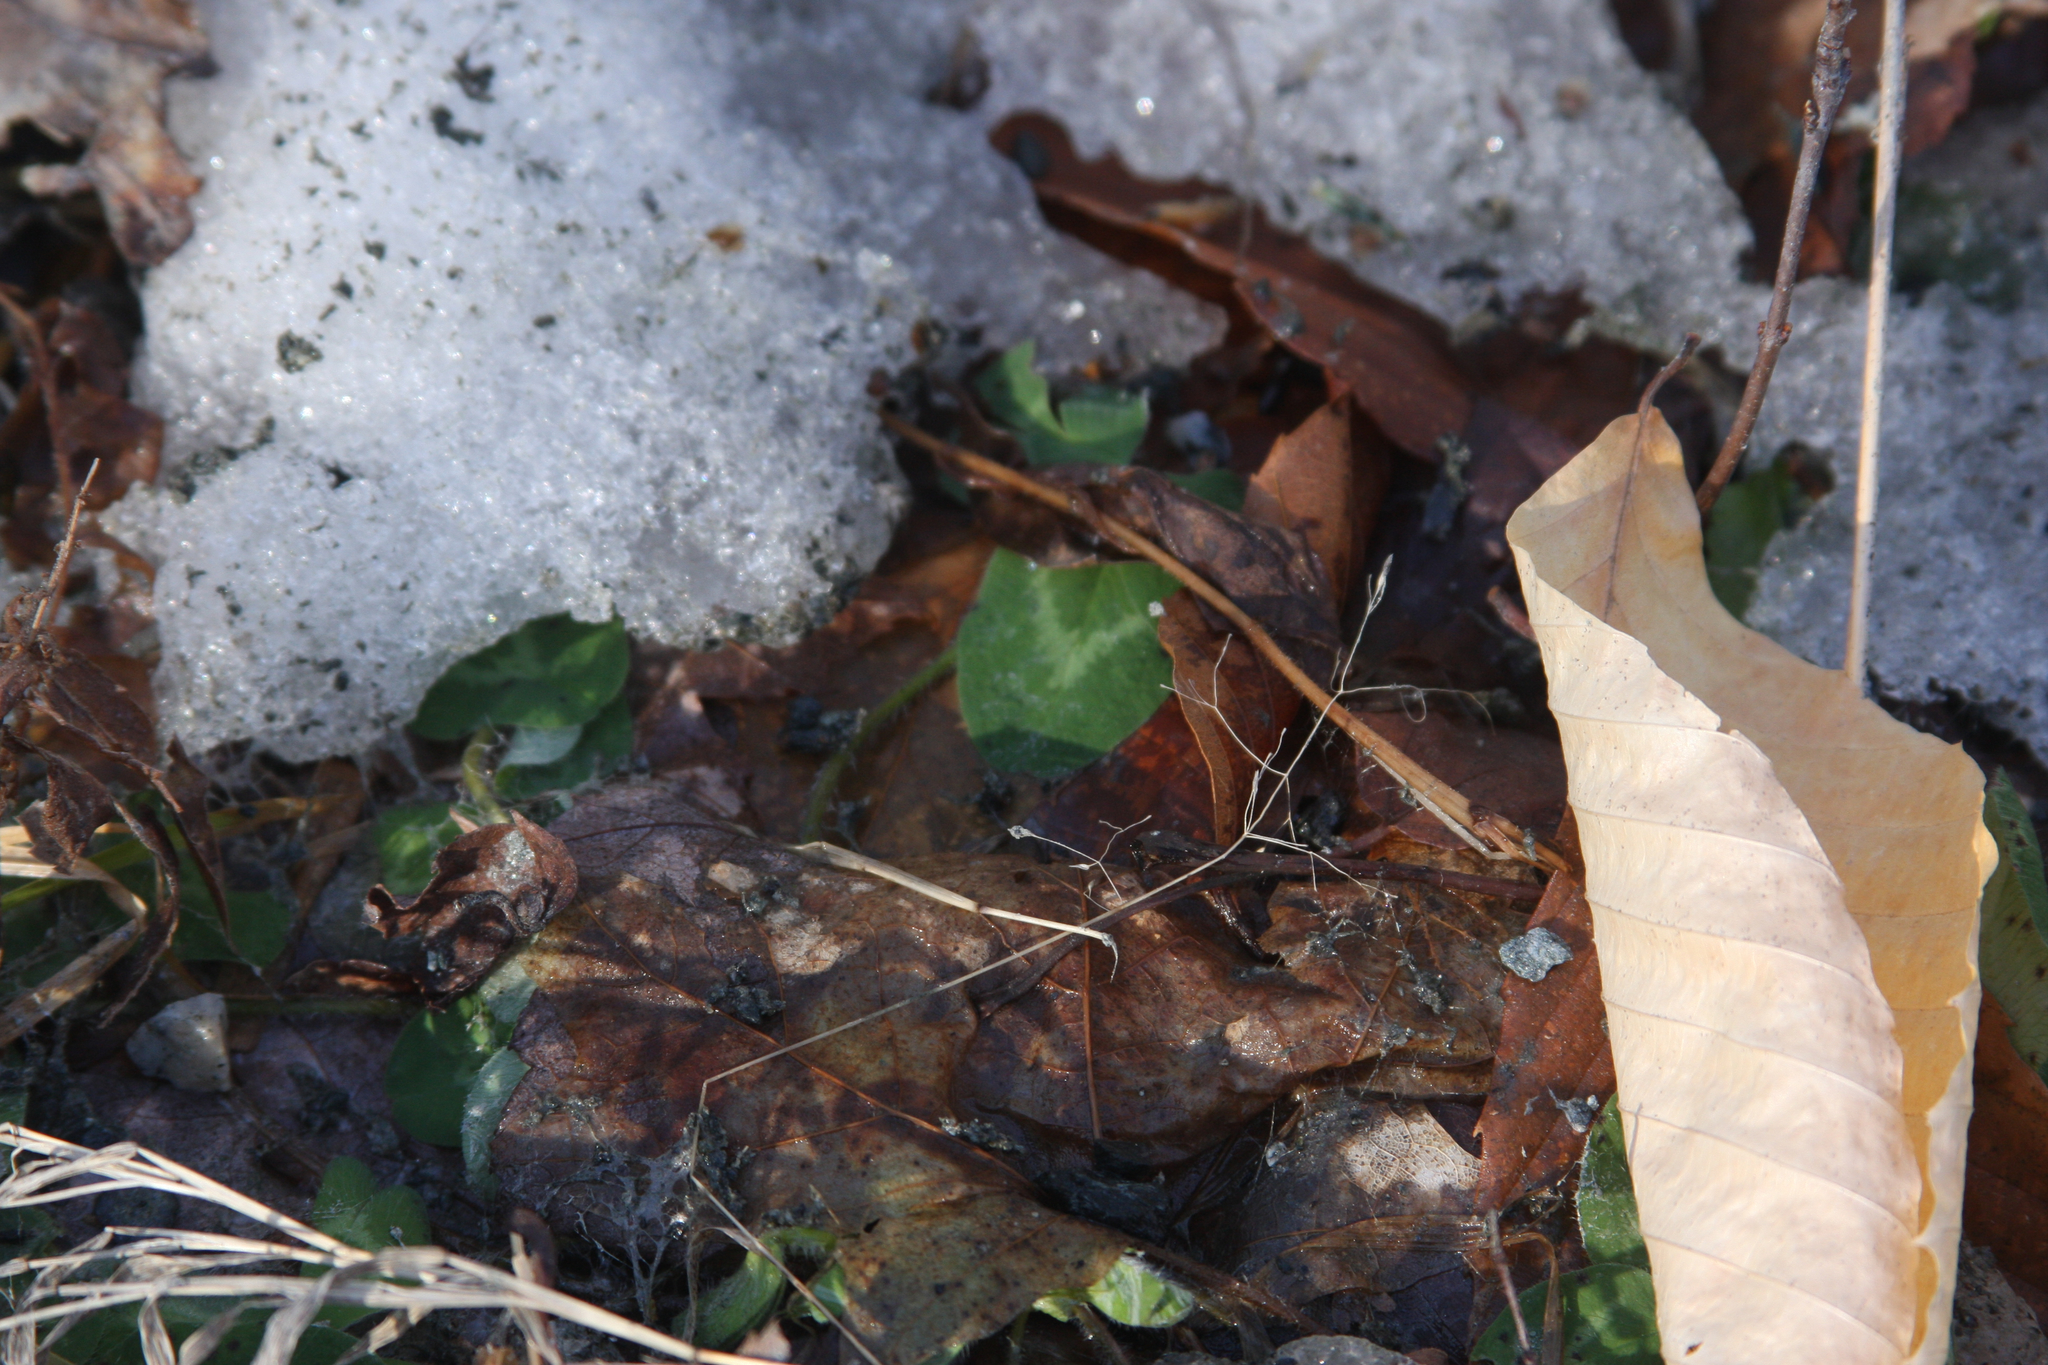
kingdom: Plantae
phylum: Tracheophyta
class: Magnoliopsida
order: Fabales
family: Fabaceae
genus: Trifolium
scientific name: Trifolium pratense
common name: Red clover
